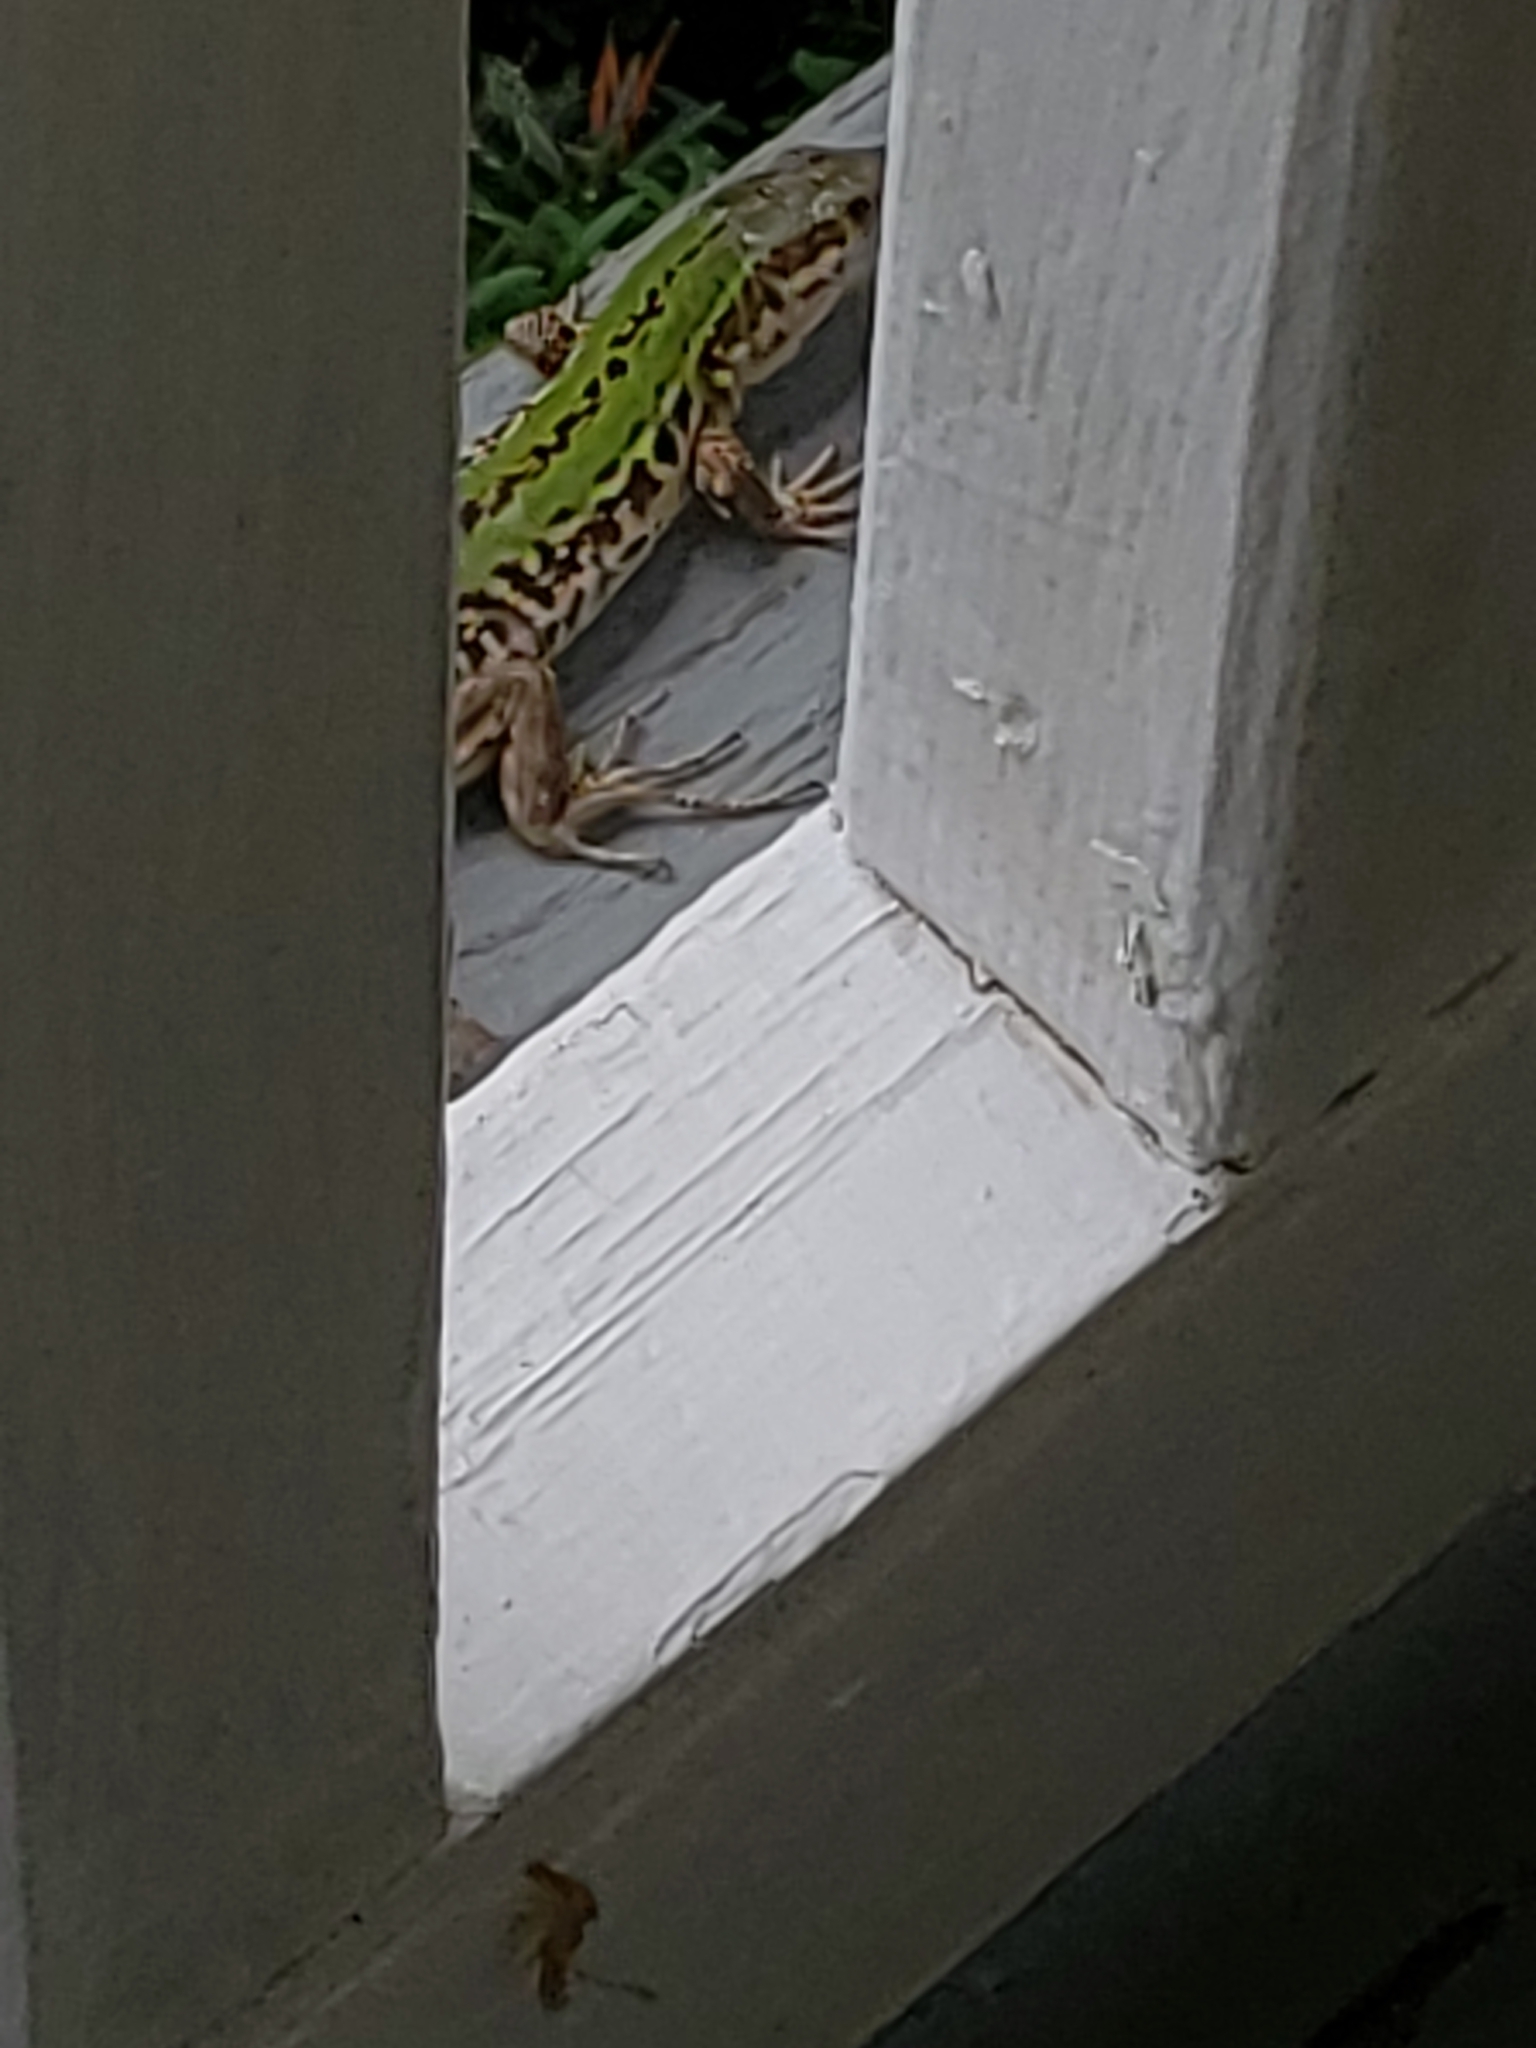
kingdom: Animalia
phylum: Chordata
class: Squamata
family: Lacertidae
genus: Podarcis
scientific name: Podarcis siculus
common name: Italian wall lizard
